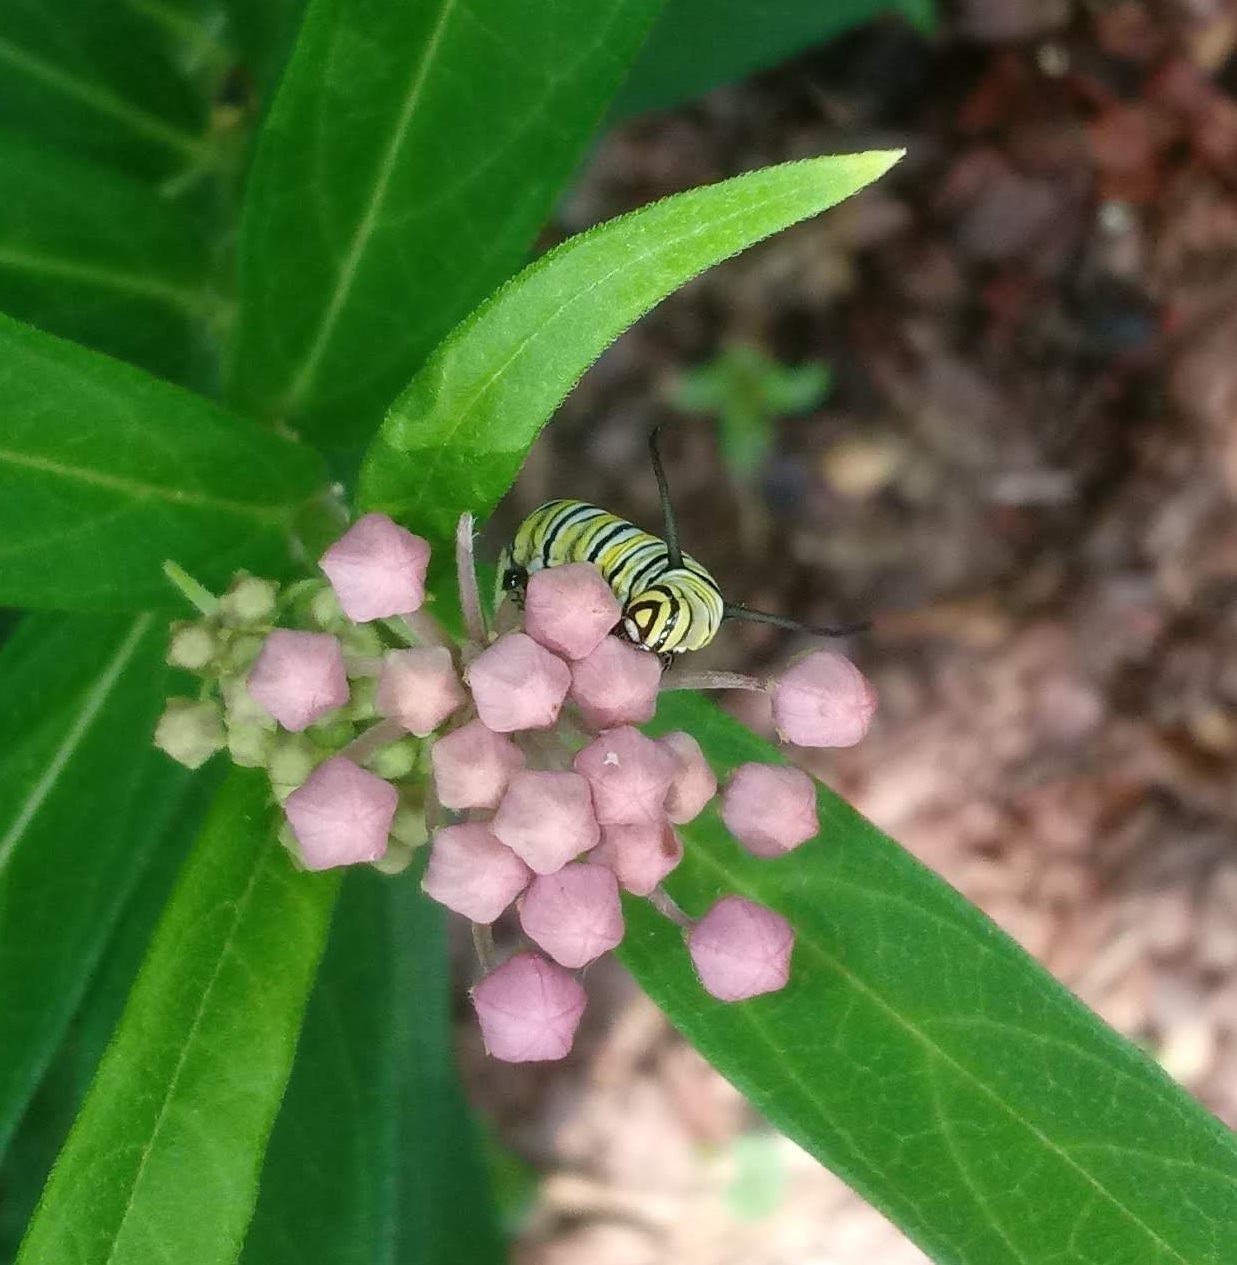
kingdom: Animalia
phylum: Arthropoda
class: Insecta
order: Lepidoptera
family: Nymphalidae
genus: Danaus
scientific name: Danaus plexippus
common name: Monarch
